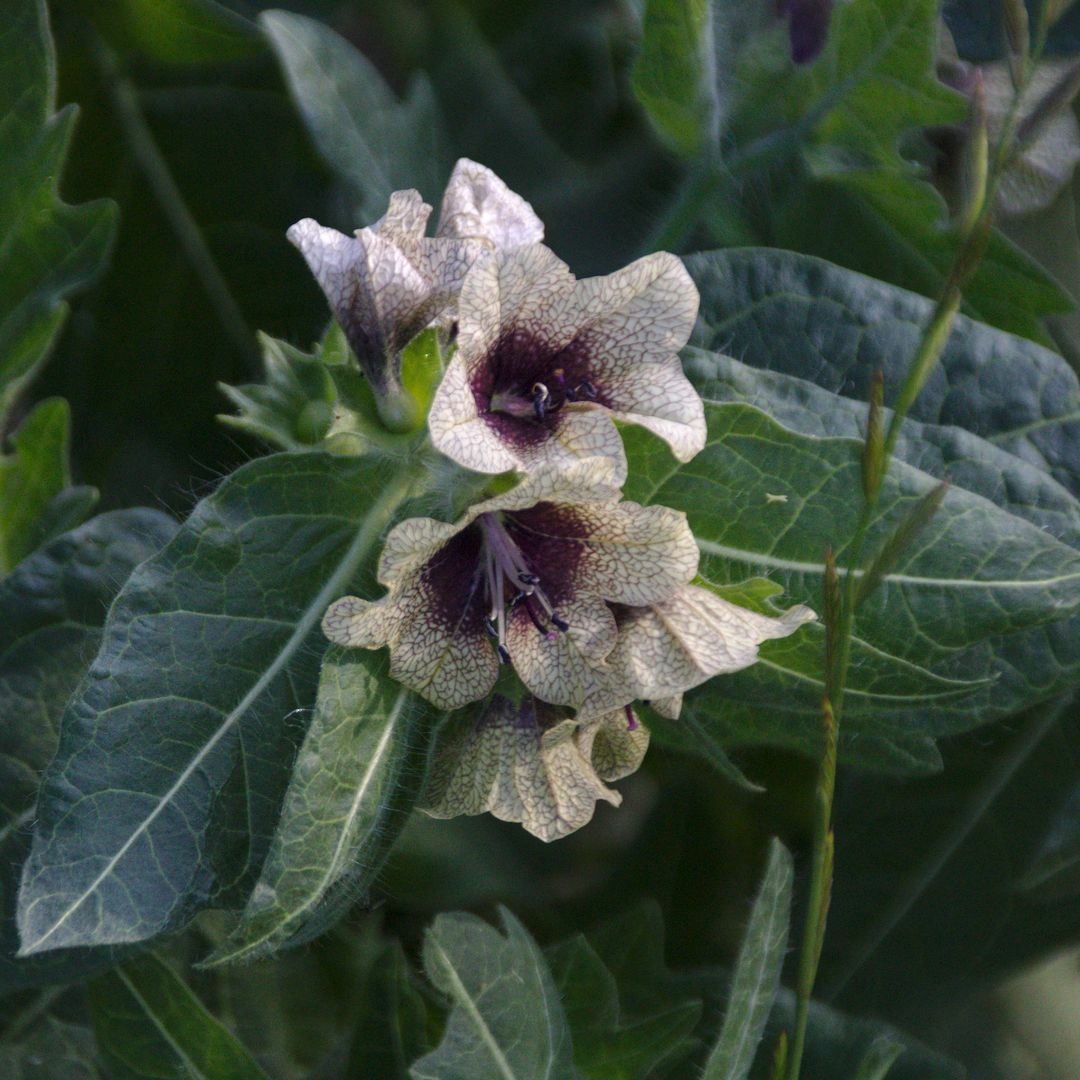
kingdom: Plantae
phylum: Tracheophyta
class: Magnoliopsida
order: Solanales
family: Solanaceae
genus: Hyoscyamus
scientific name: Hyoscyamus niger
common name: Henbane
